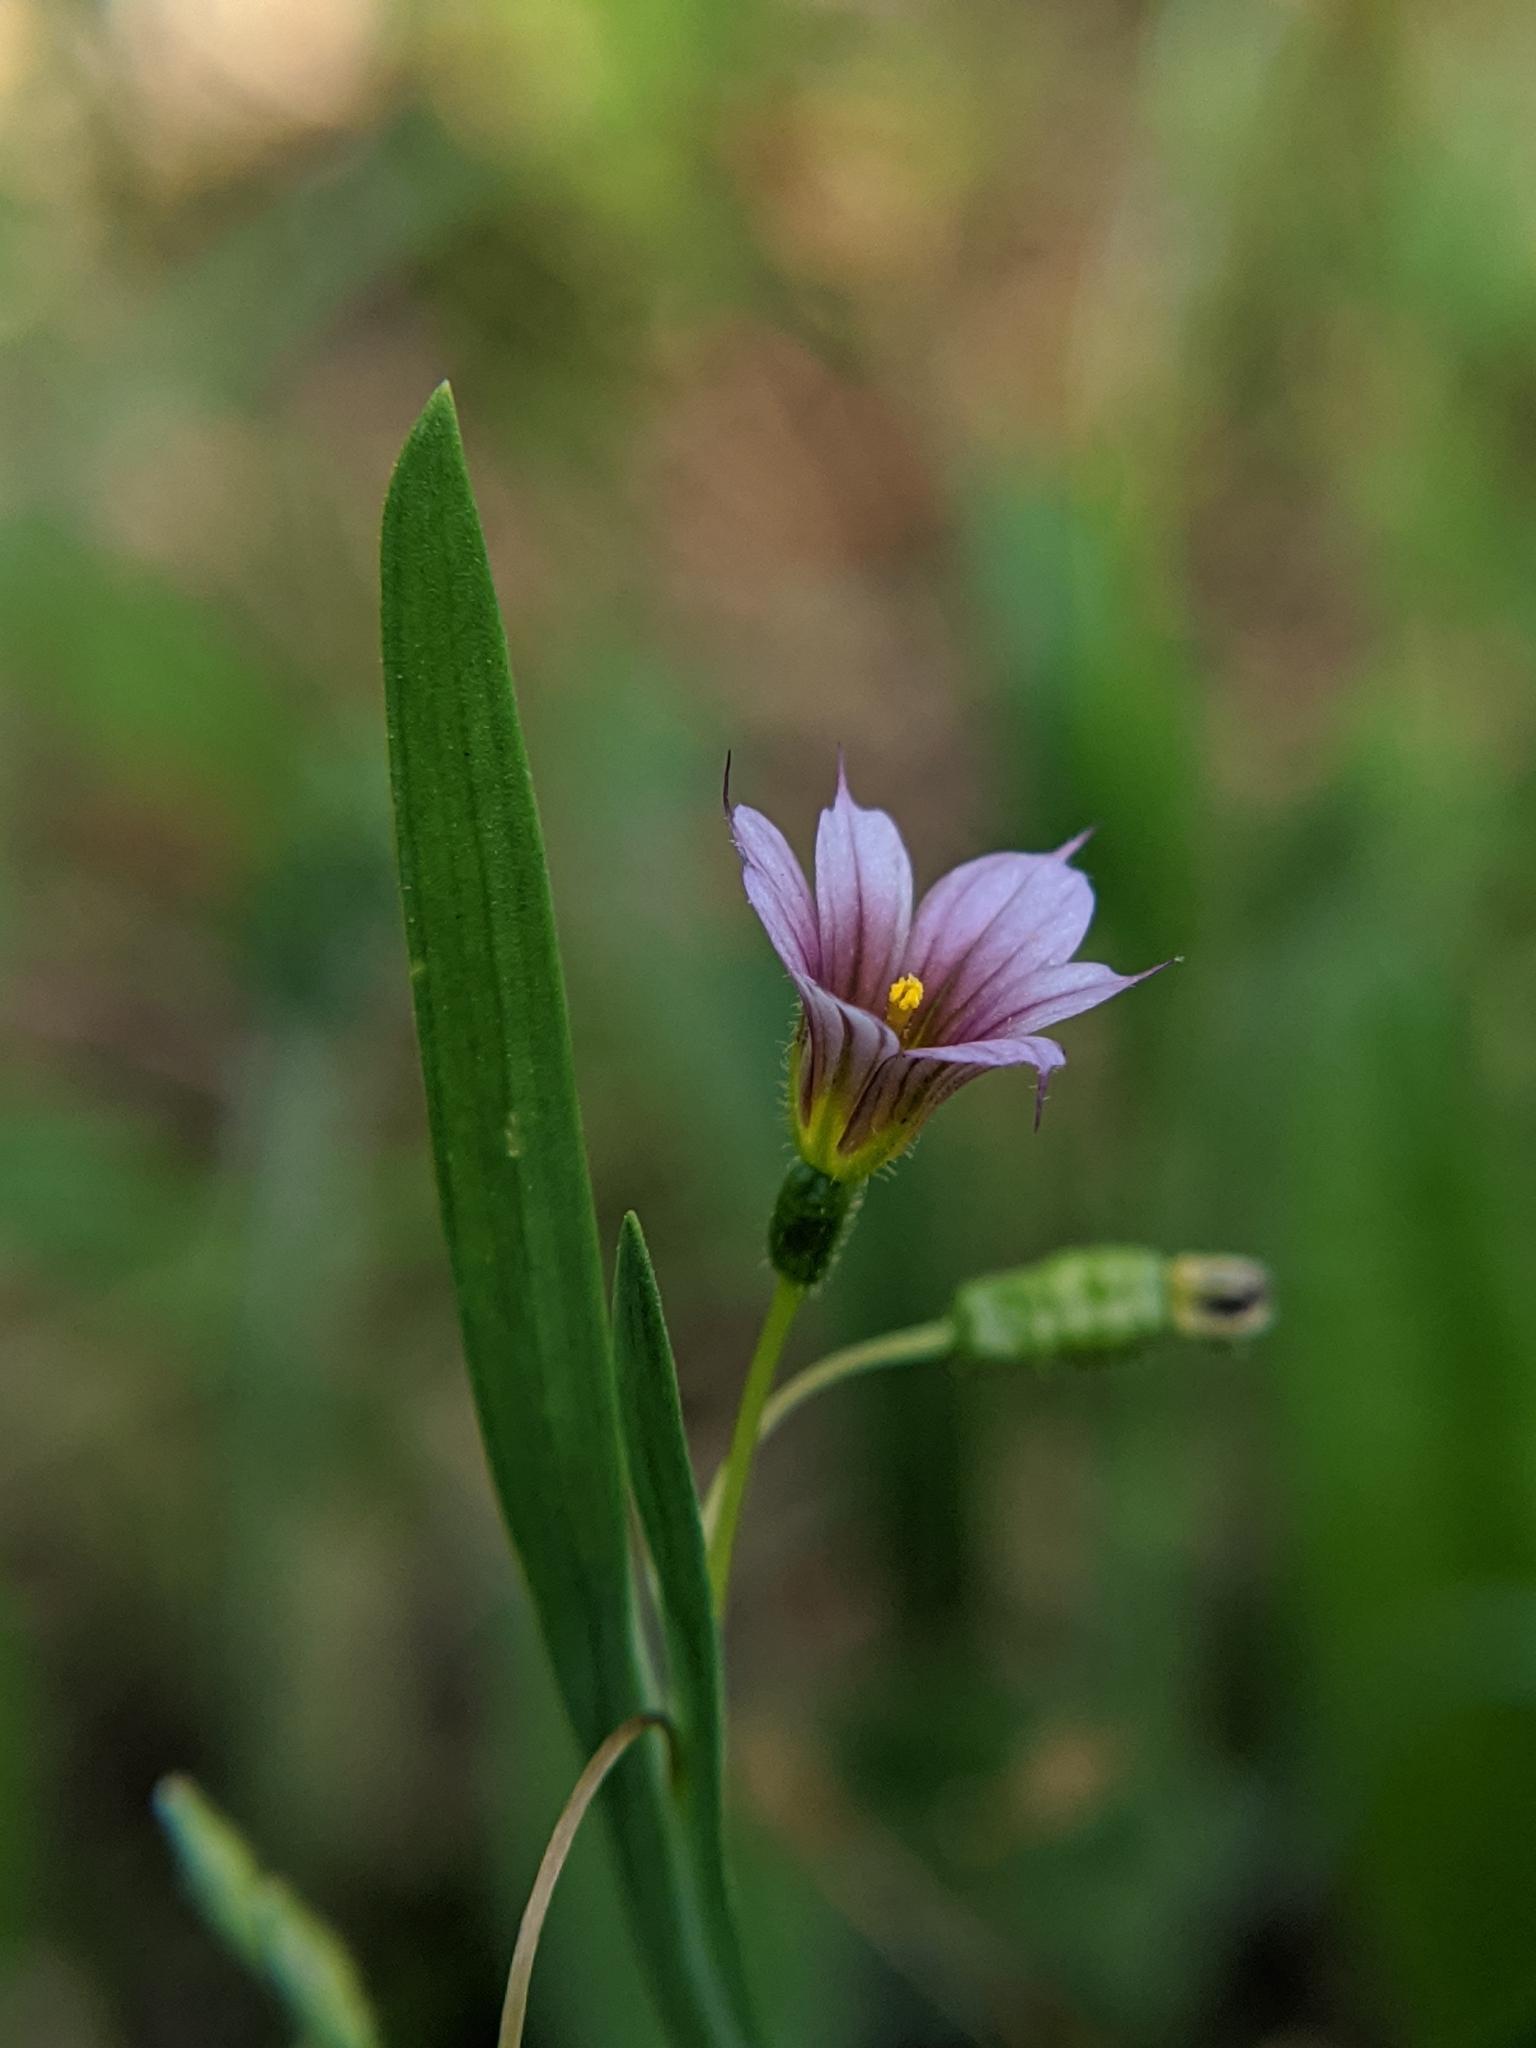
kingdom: Plantae
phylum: Tracheophyta
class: Liliopsida
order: Asparagales
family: Iridaceae
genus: Sisyrinchium
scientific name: Sisyrinchium minus
